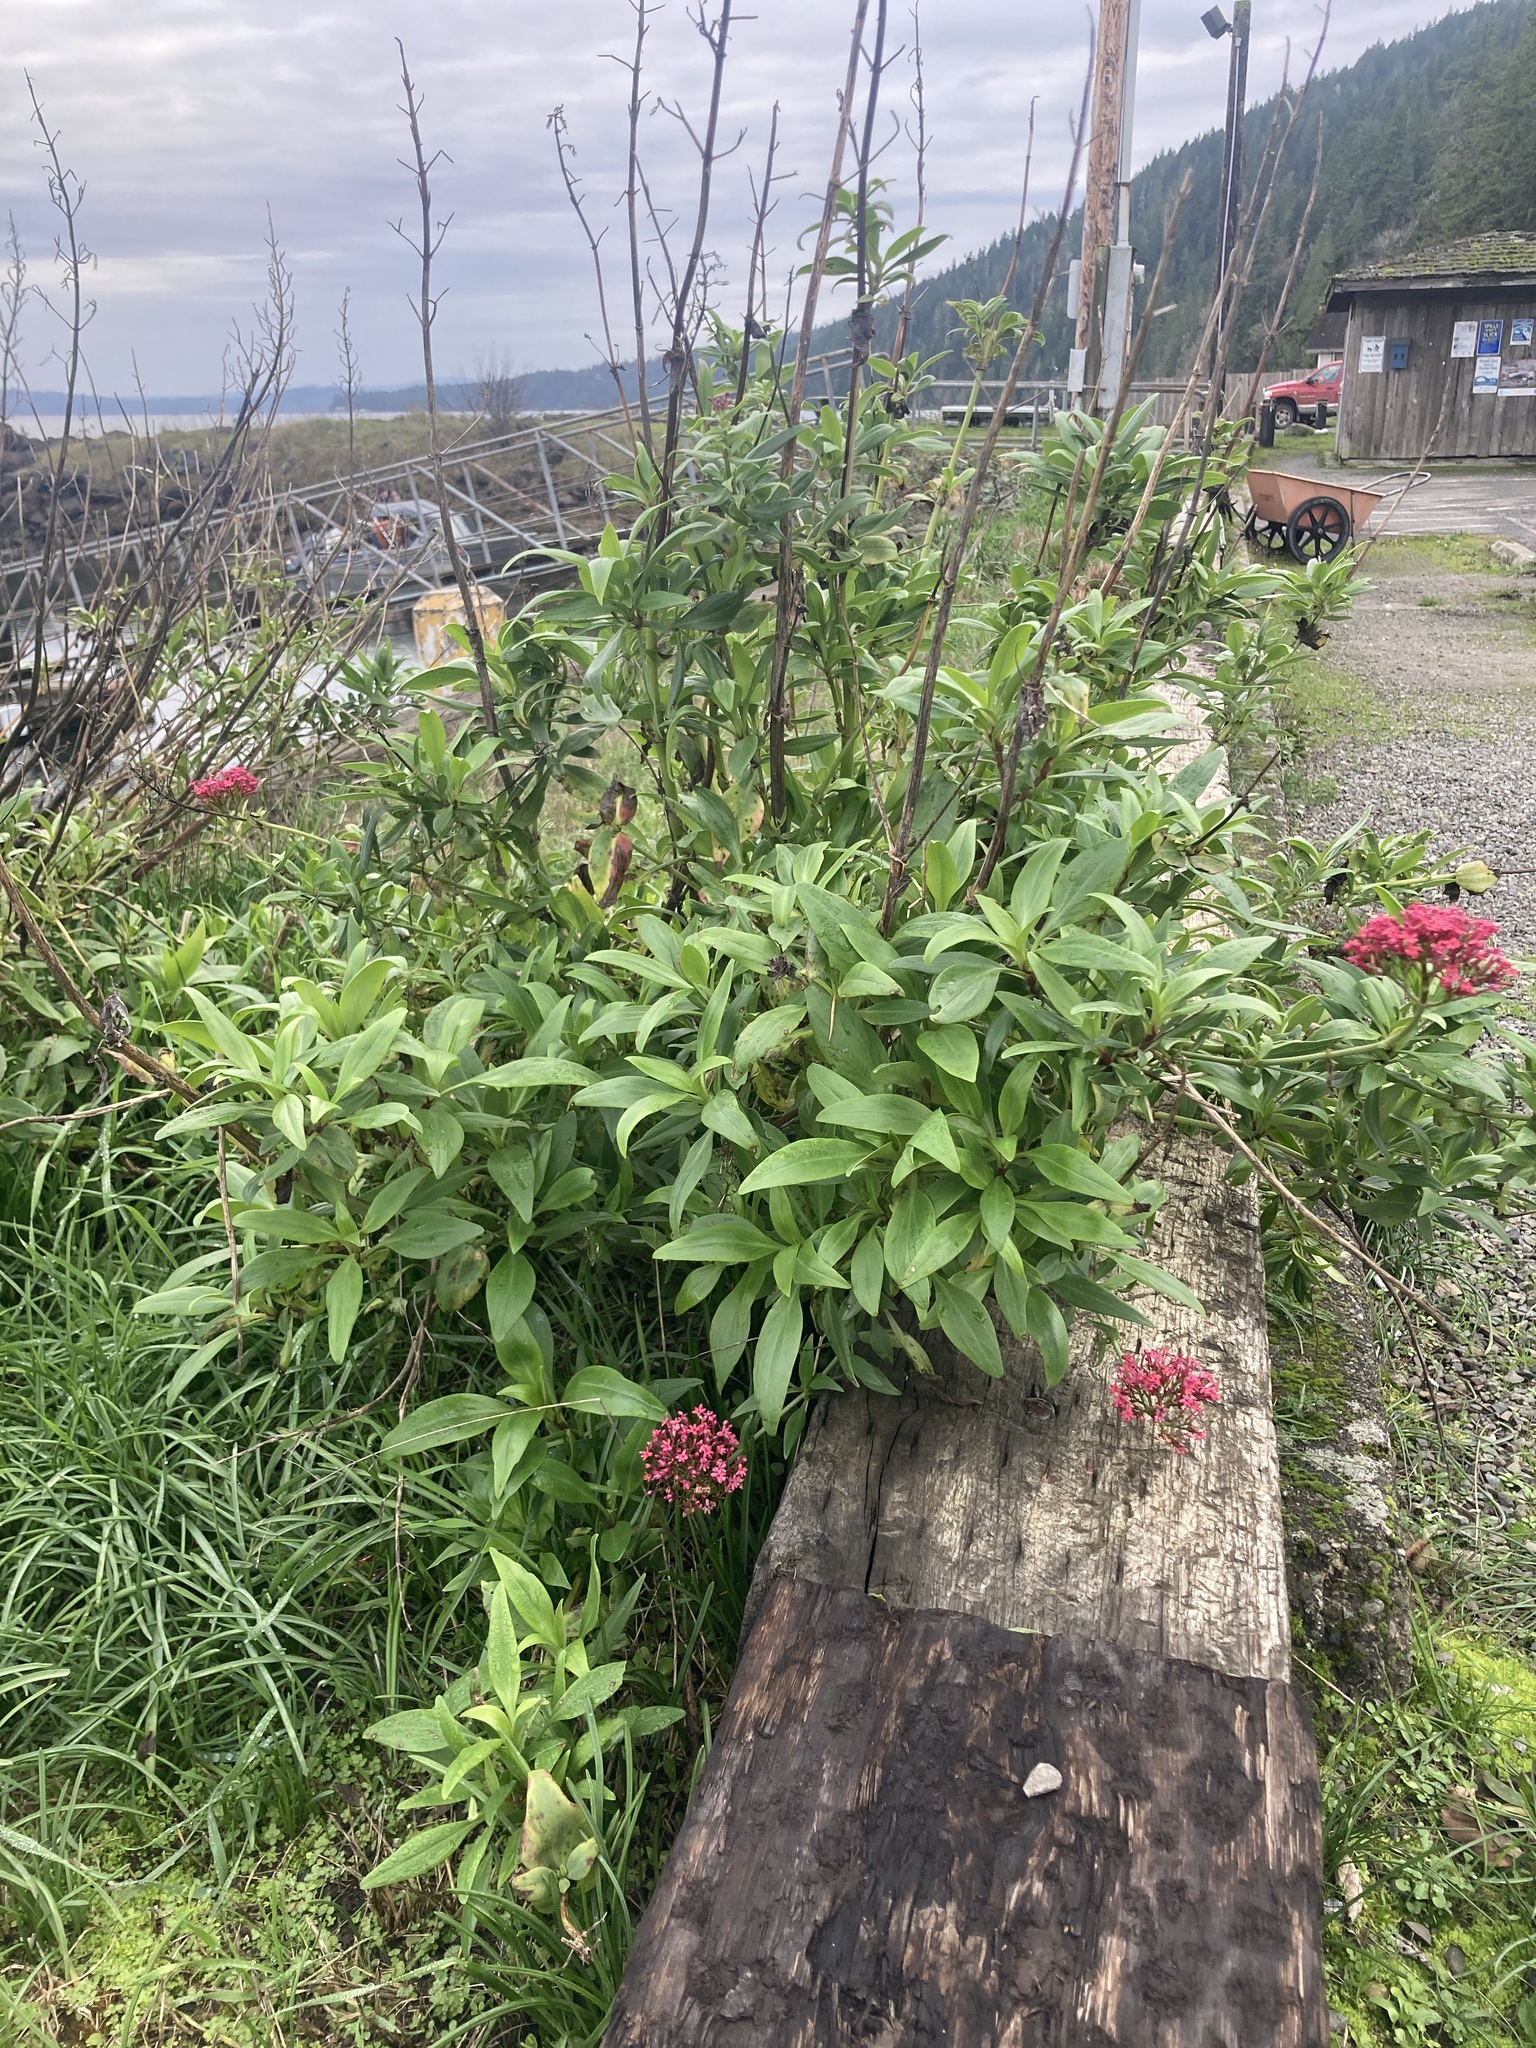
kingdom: Plantae
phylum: Tracheophyta
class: Magnoliopsida
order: Dipsacales
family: Caprifoliaceae
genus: Centranthus
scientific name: Centranthus ruber
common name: Red valerian
